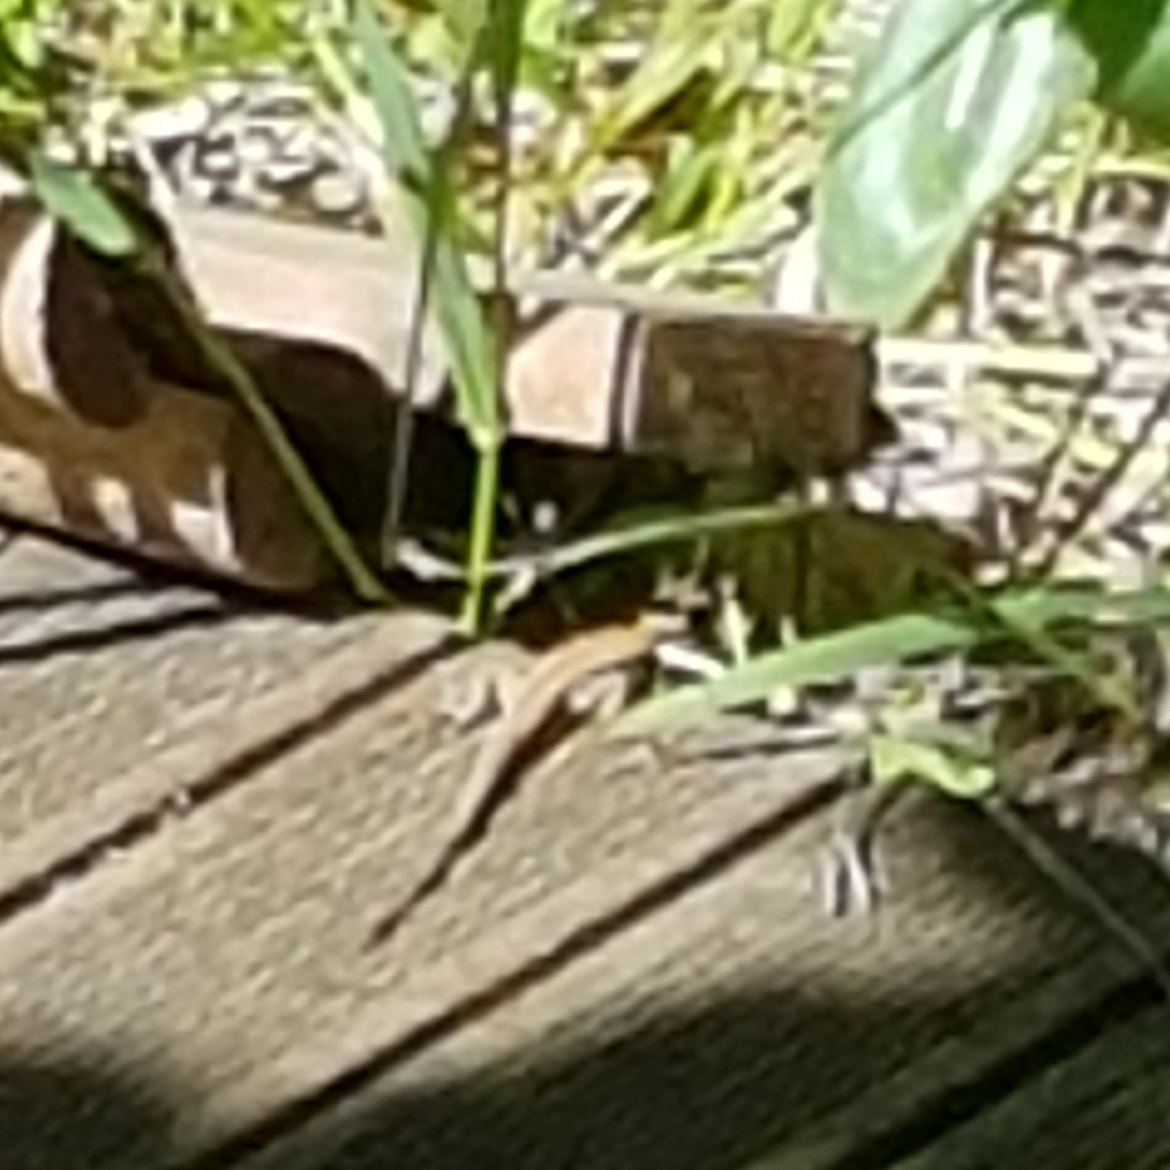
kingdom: Animalia
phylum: Chordata
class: Squamata
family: Lacertidae
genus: Podarcis
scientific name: Podarcis muralis
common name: Common wall lizard
